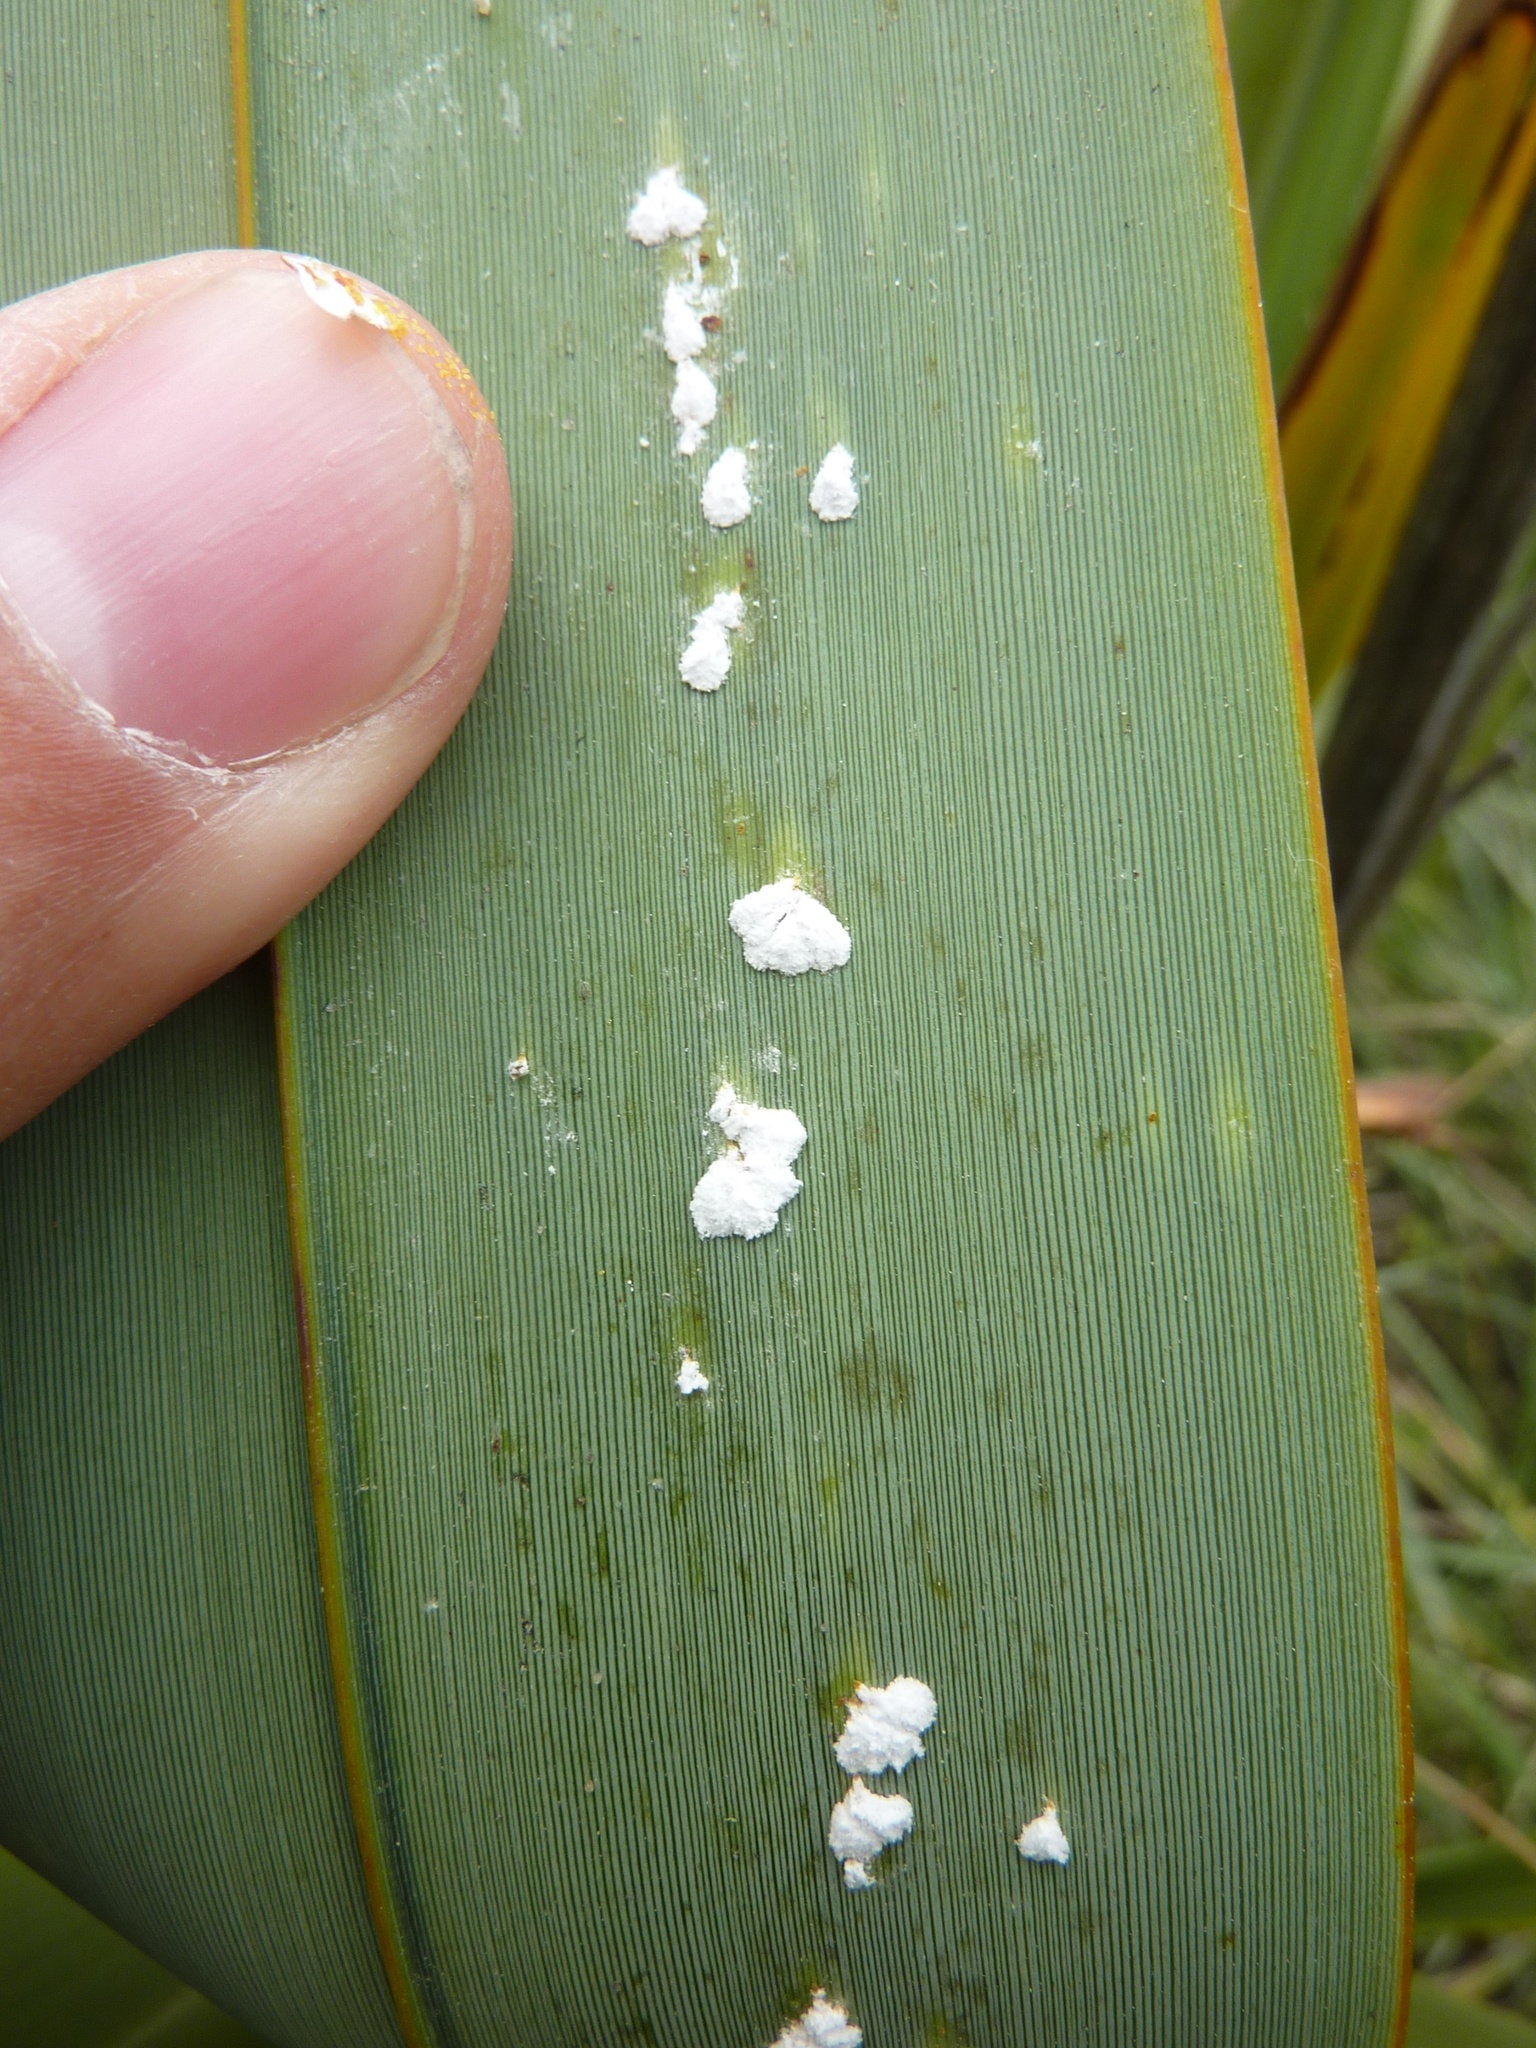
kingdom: Animalia
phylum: Arthropoda
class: Insecta
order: Hemiptera
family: Diaspididae
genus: Poliaspis
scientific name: Poliaspis floccosa
